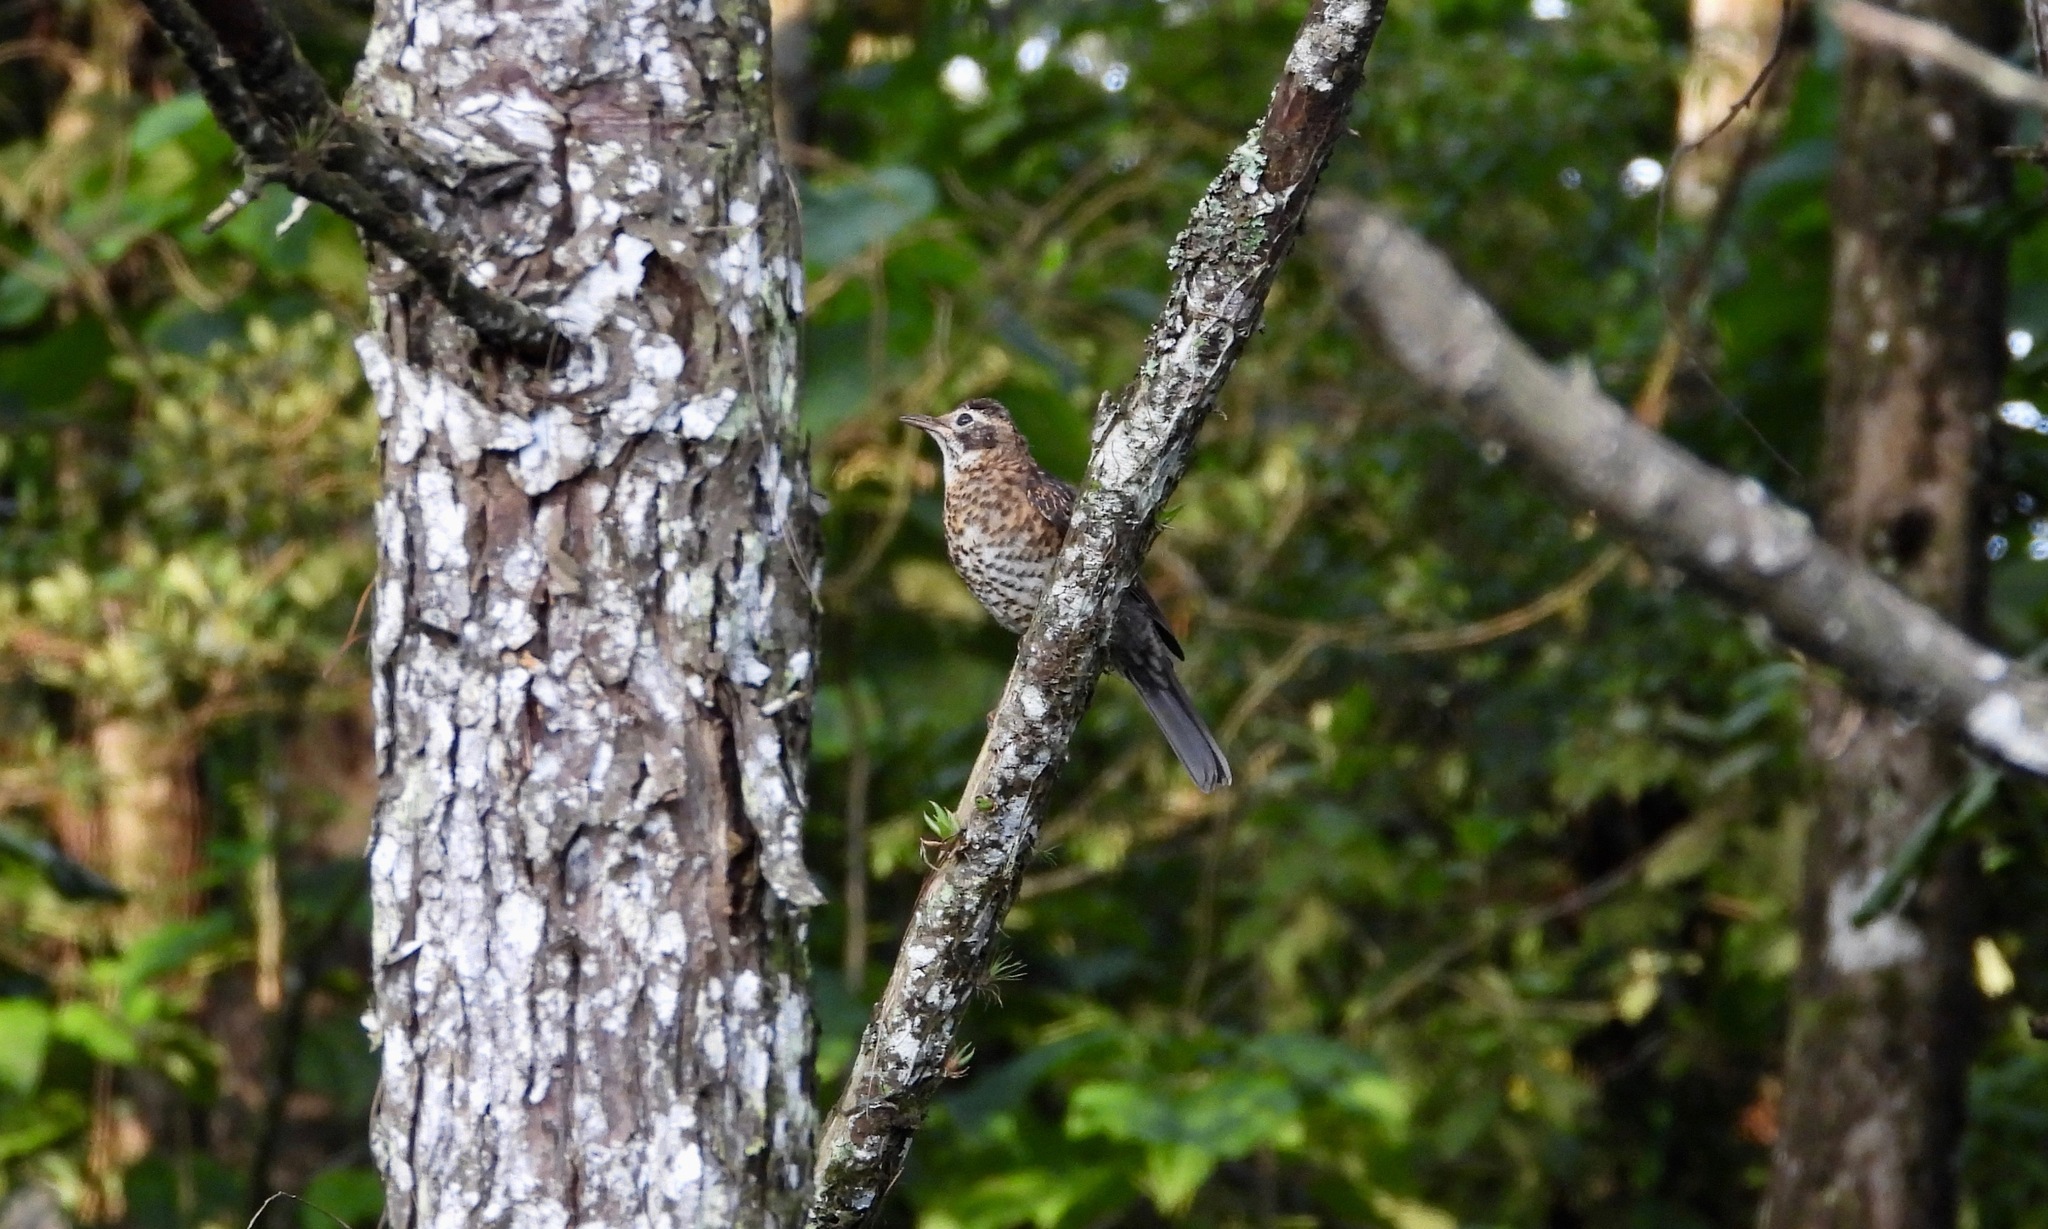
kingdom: Animalia
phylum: Chordata
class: Aves
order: Passeriformes
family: Turdidae
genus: Turdus
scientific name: Turdus rufitorques
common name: Rufous-collared thrush
